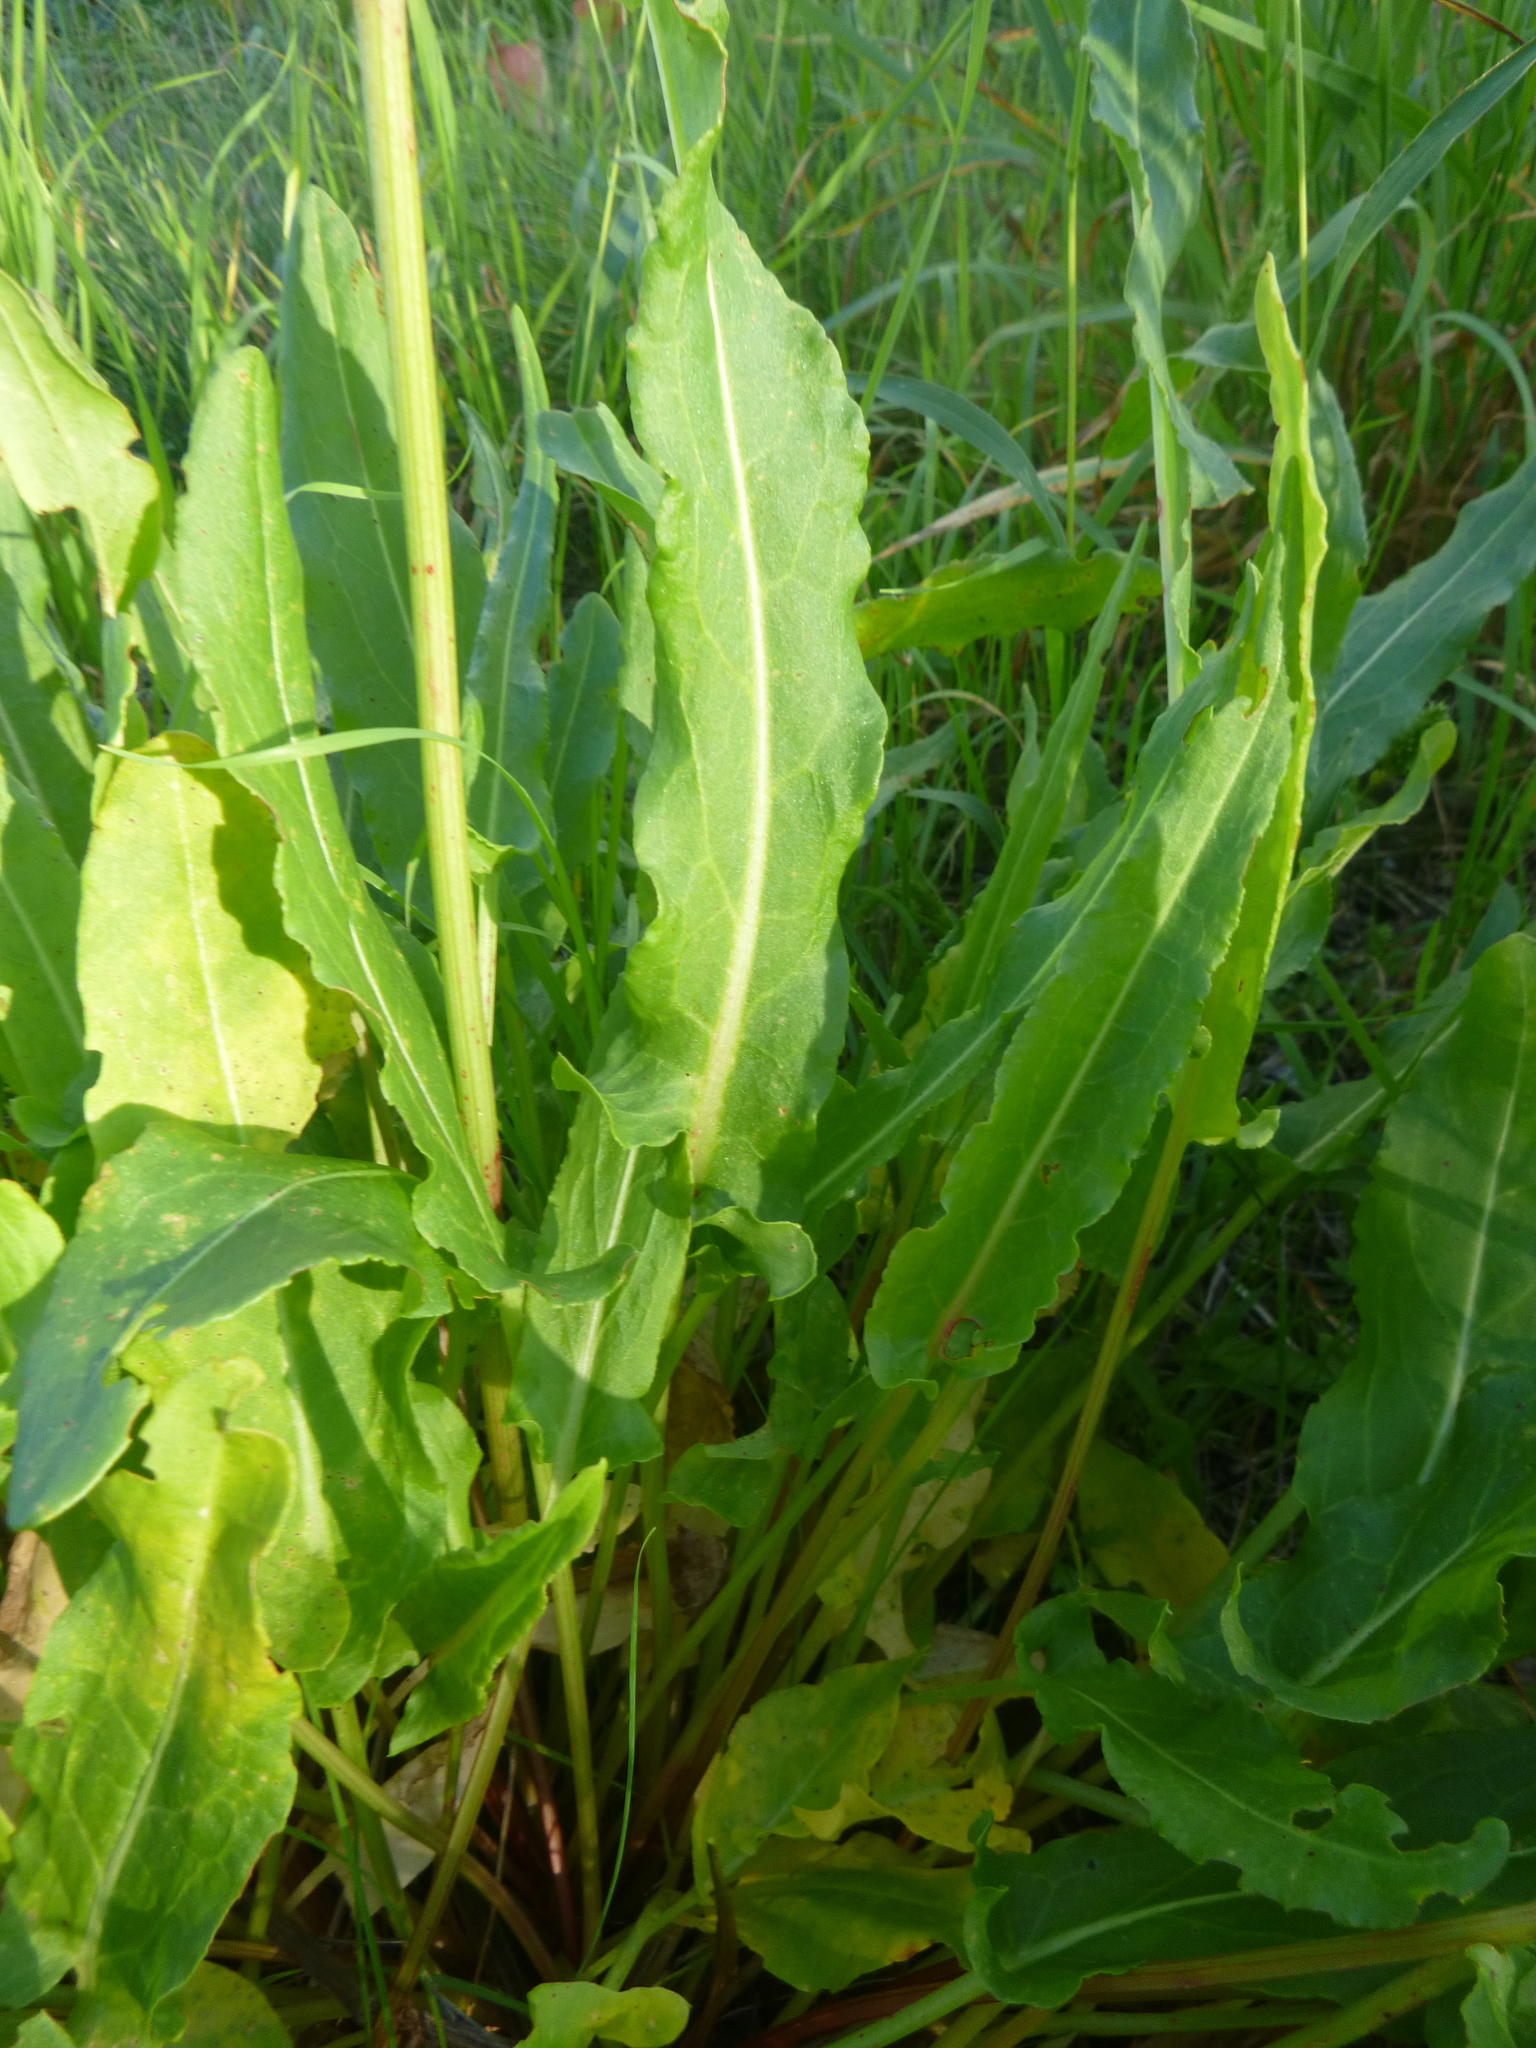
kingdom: Plantae
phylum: Tracheophyta
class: Magnoliopsida
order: Caryophyllales
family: Polygonaceae
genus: Rumex
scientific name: Rumex thyrsiflorus
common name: Garden sorrel
